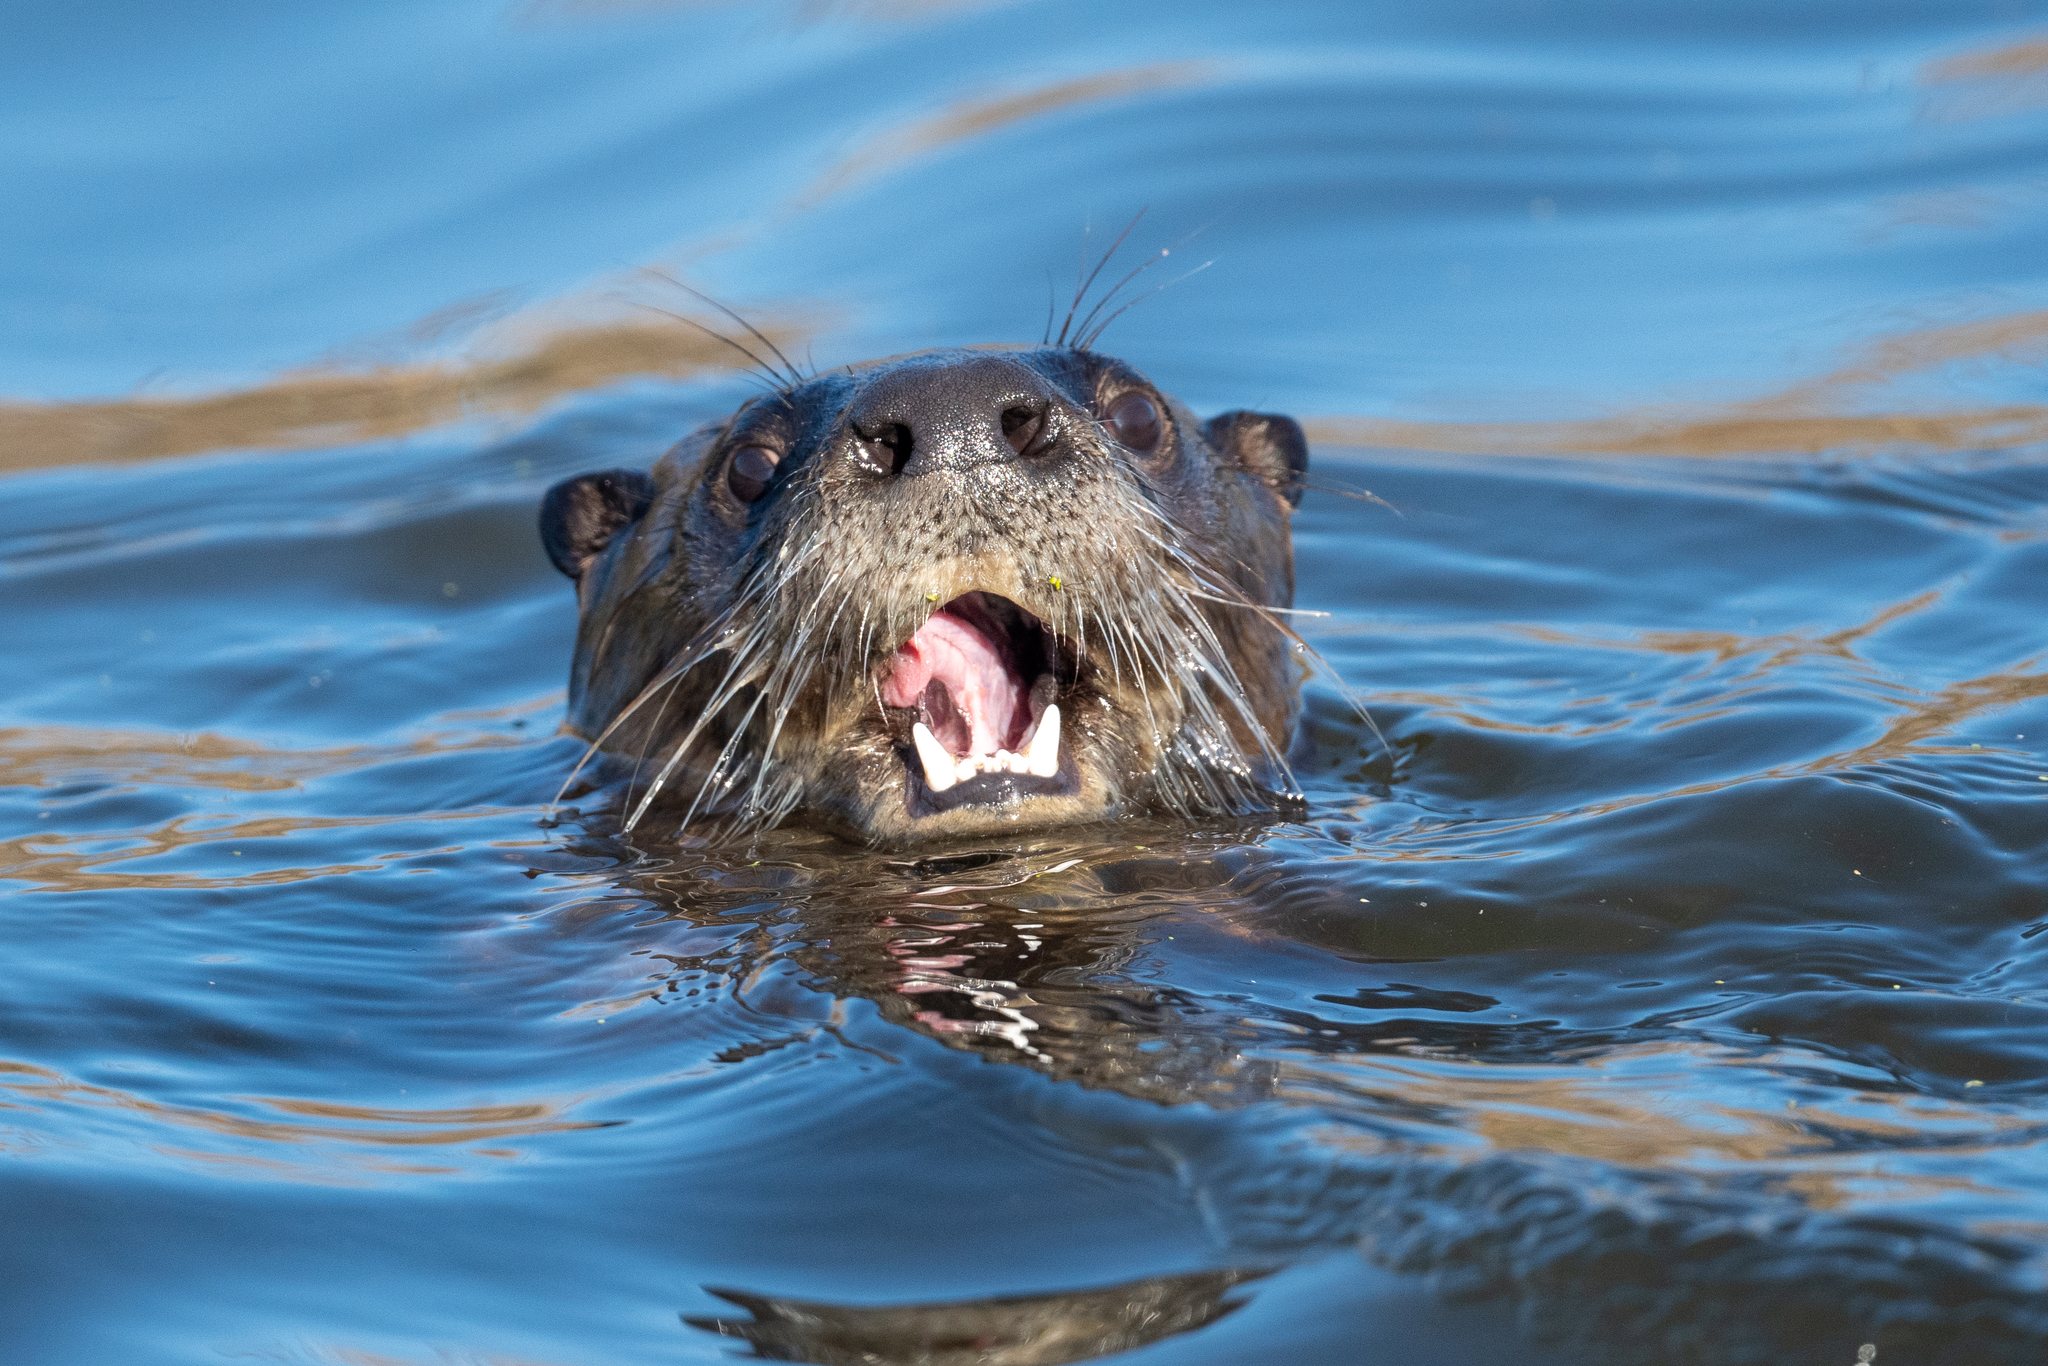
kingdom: Animalia
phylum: Chordata
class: Mammalia
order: Carnivora
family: Mustelidae
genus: Lontra
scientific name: Lontra canadensis
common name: North american river otter
